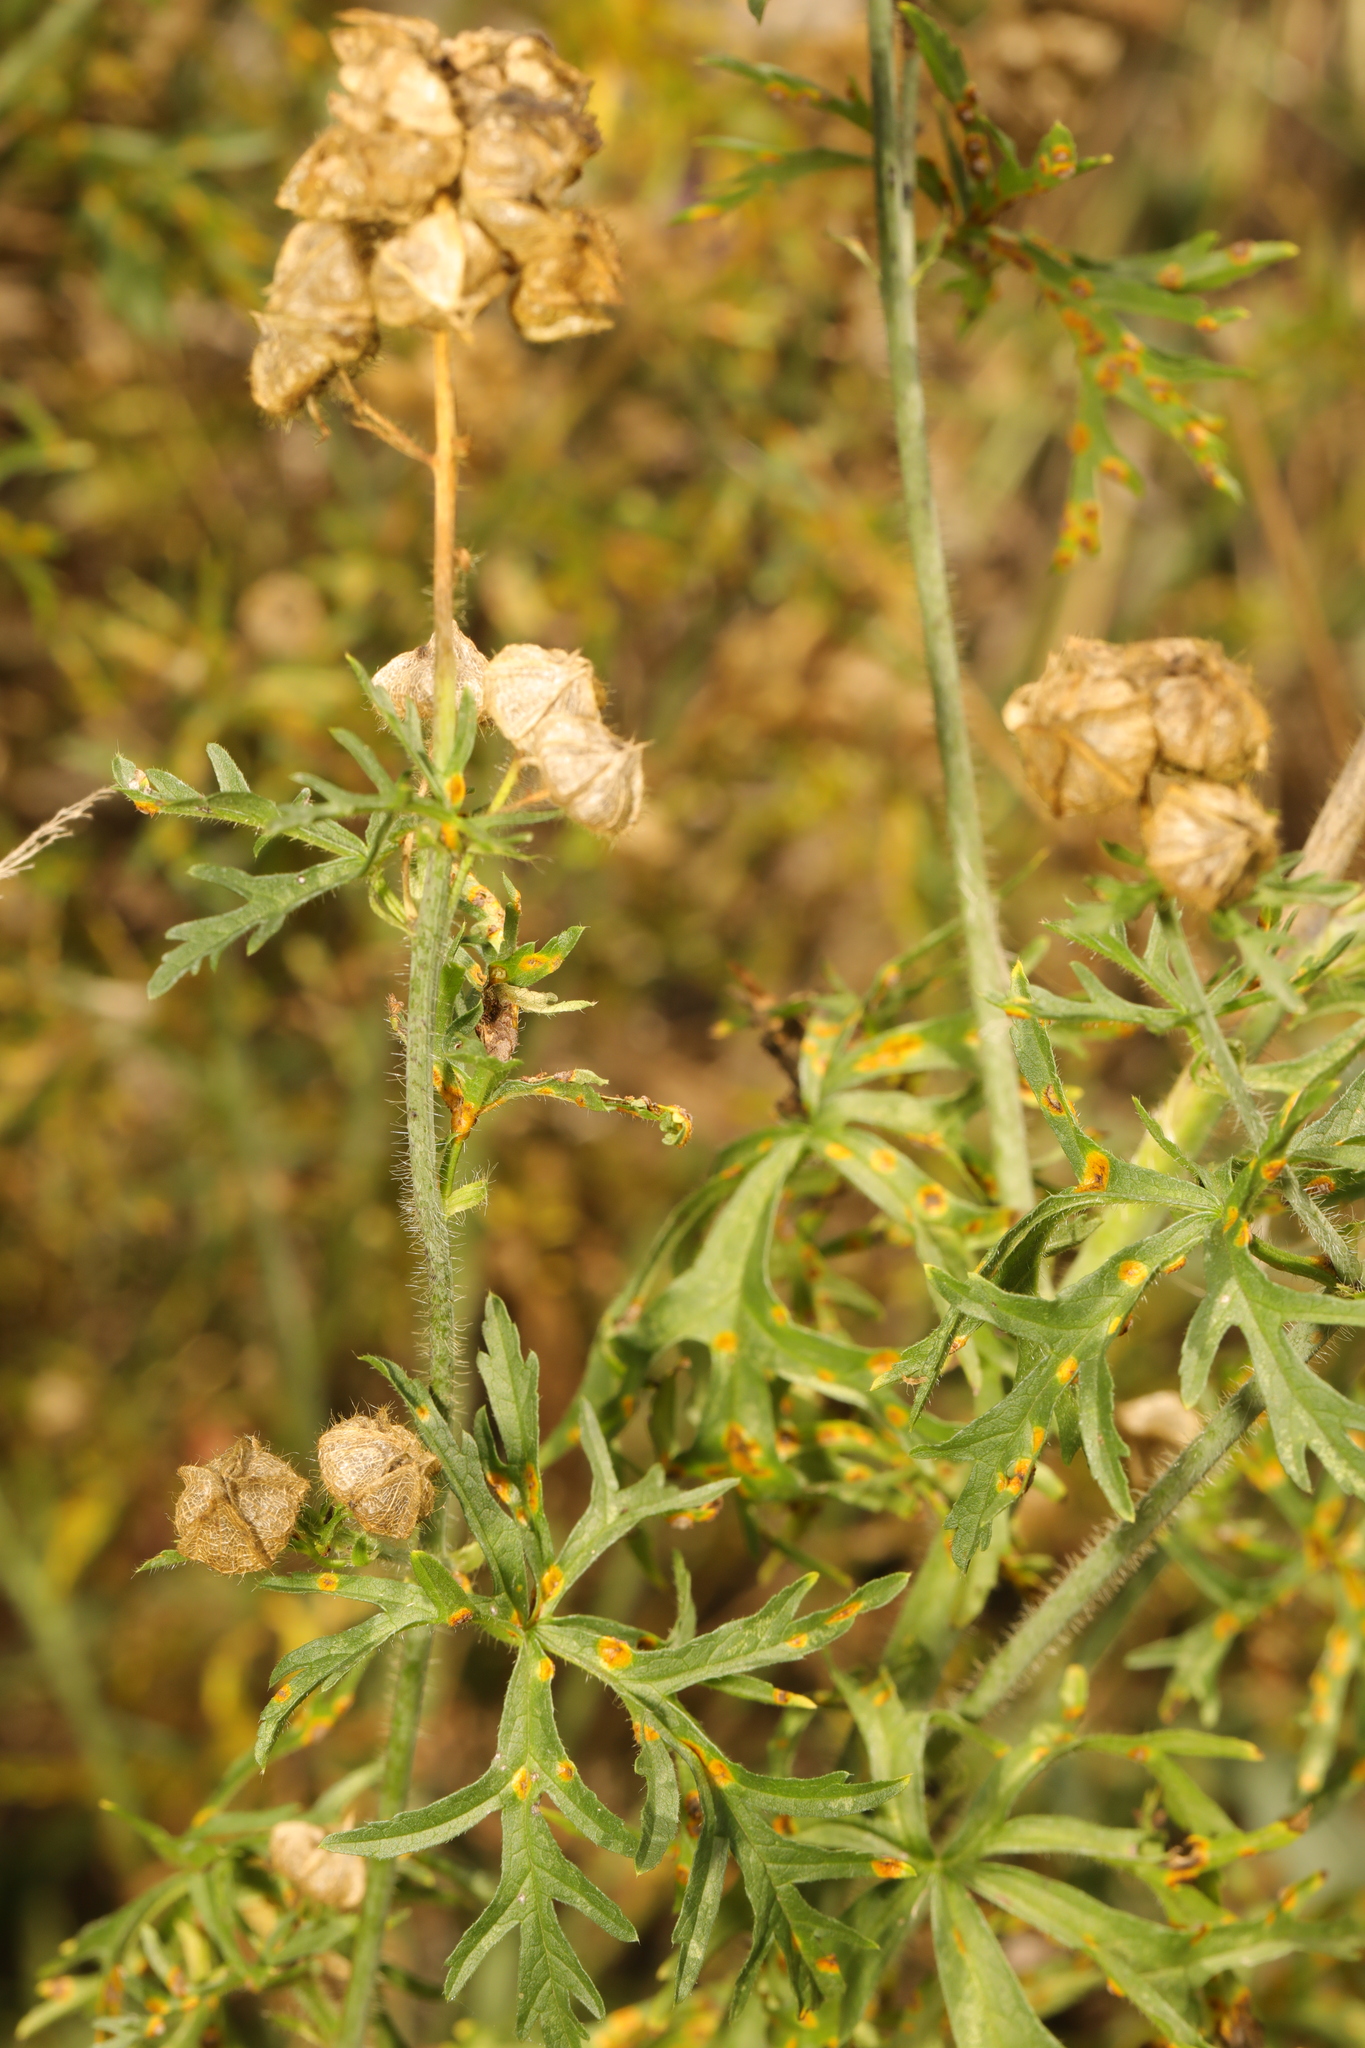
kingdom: Plantae
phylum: Tracheophyta
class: Magnoliopsida
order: Malvales
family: Malvaceae
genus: Malva
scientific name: Malva moschata
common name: Musk mallow
